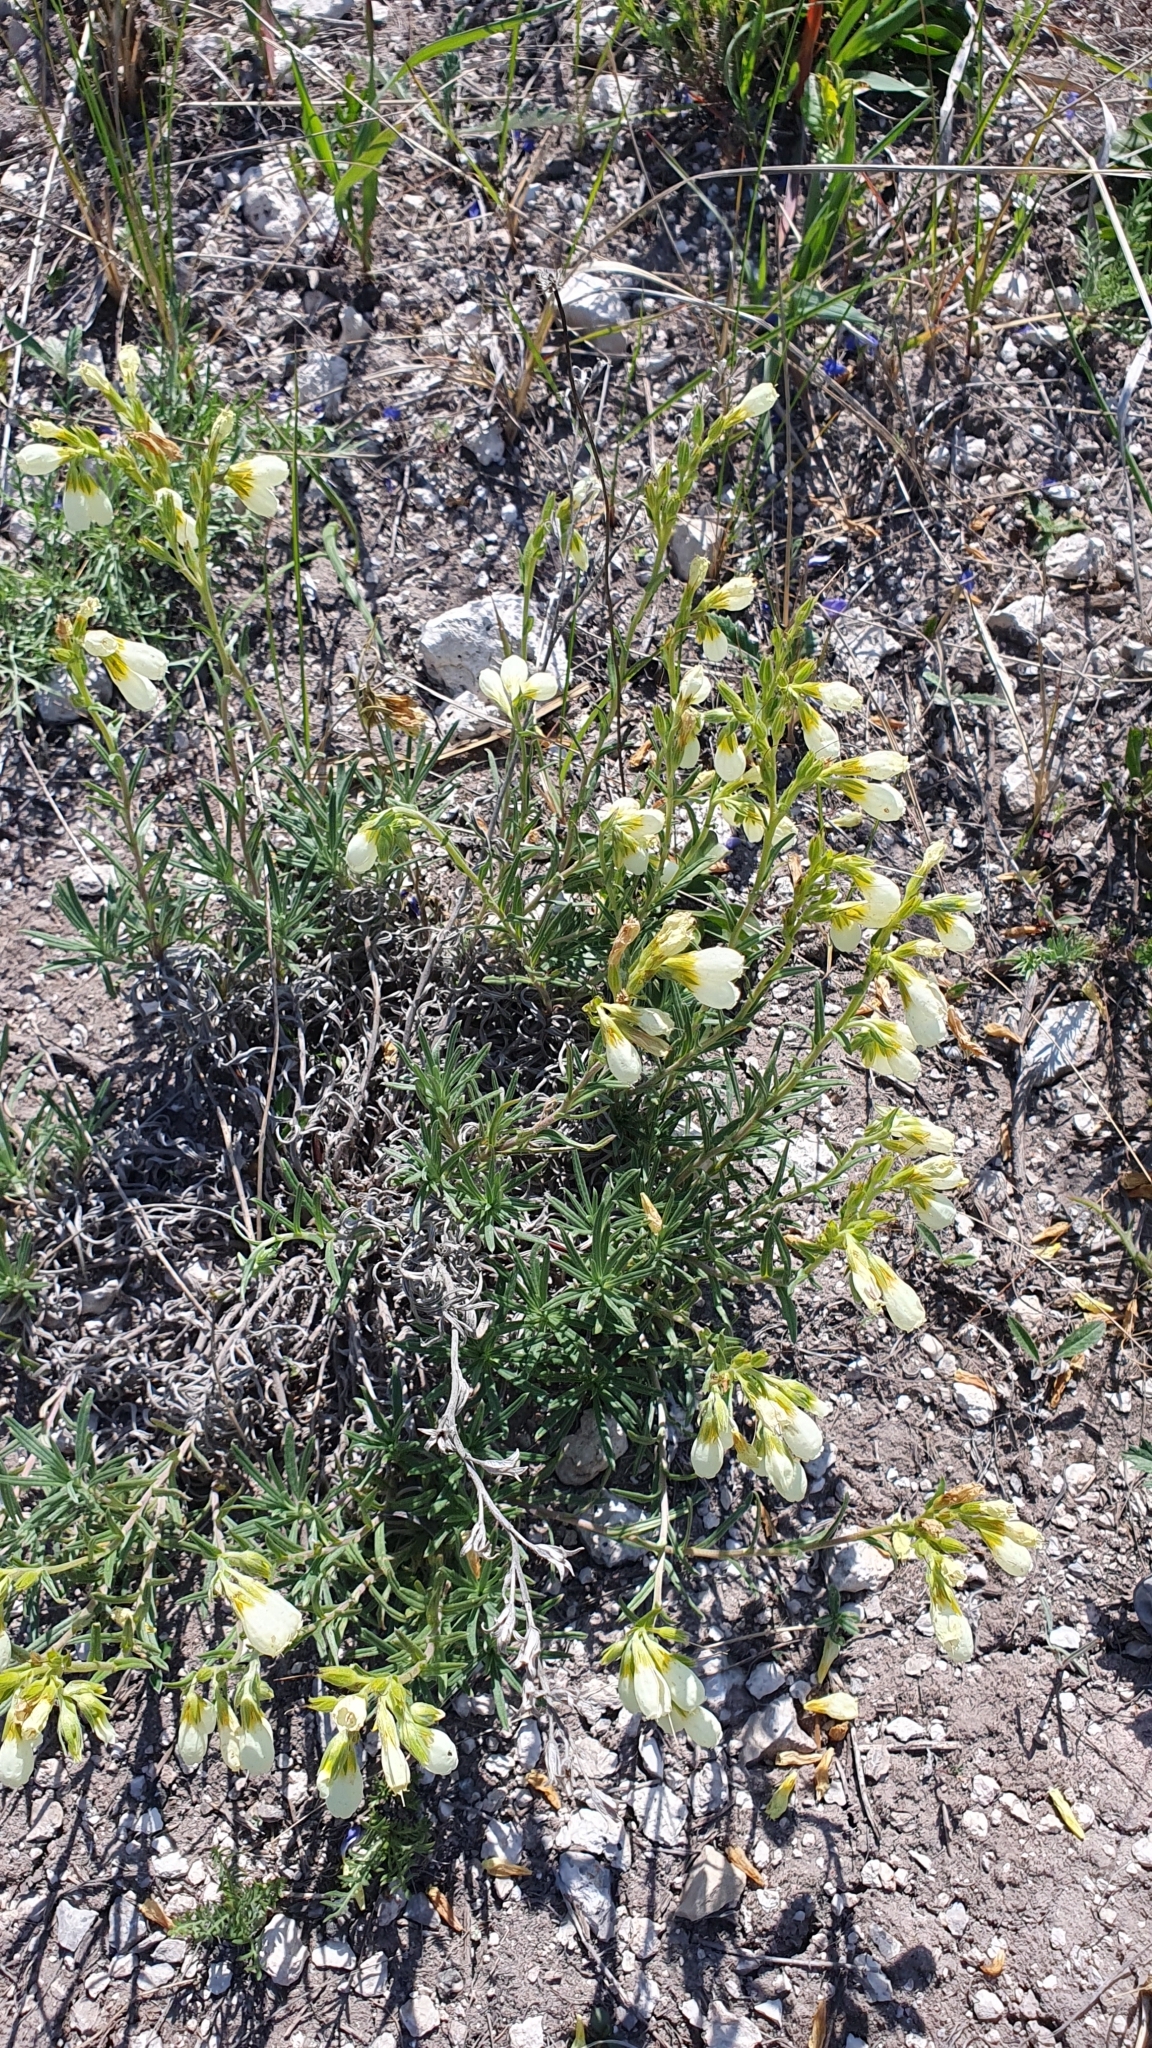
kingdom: Plantae
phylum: Tracheophyta
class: Magnoliopsida
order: Boraginales
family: Boraginaceae
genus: Onosma
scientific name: Onosma simplicissima
